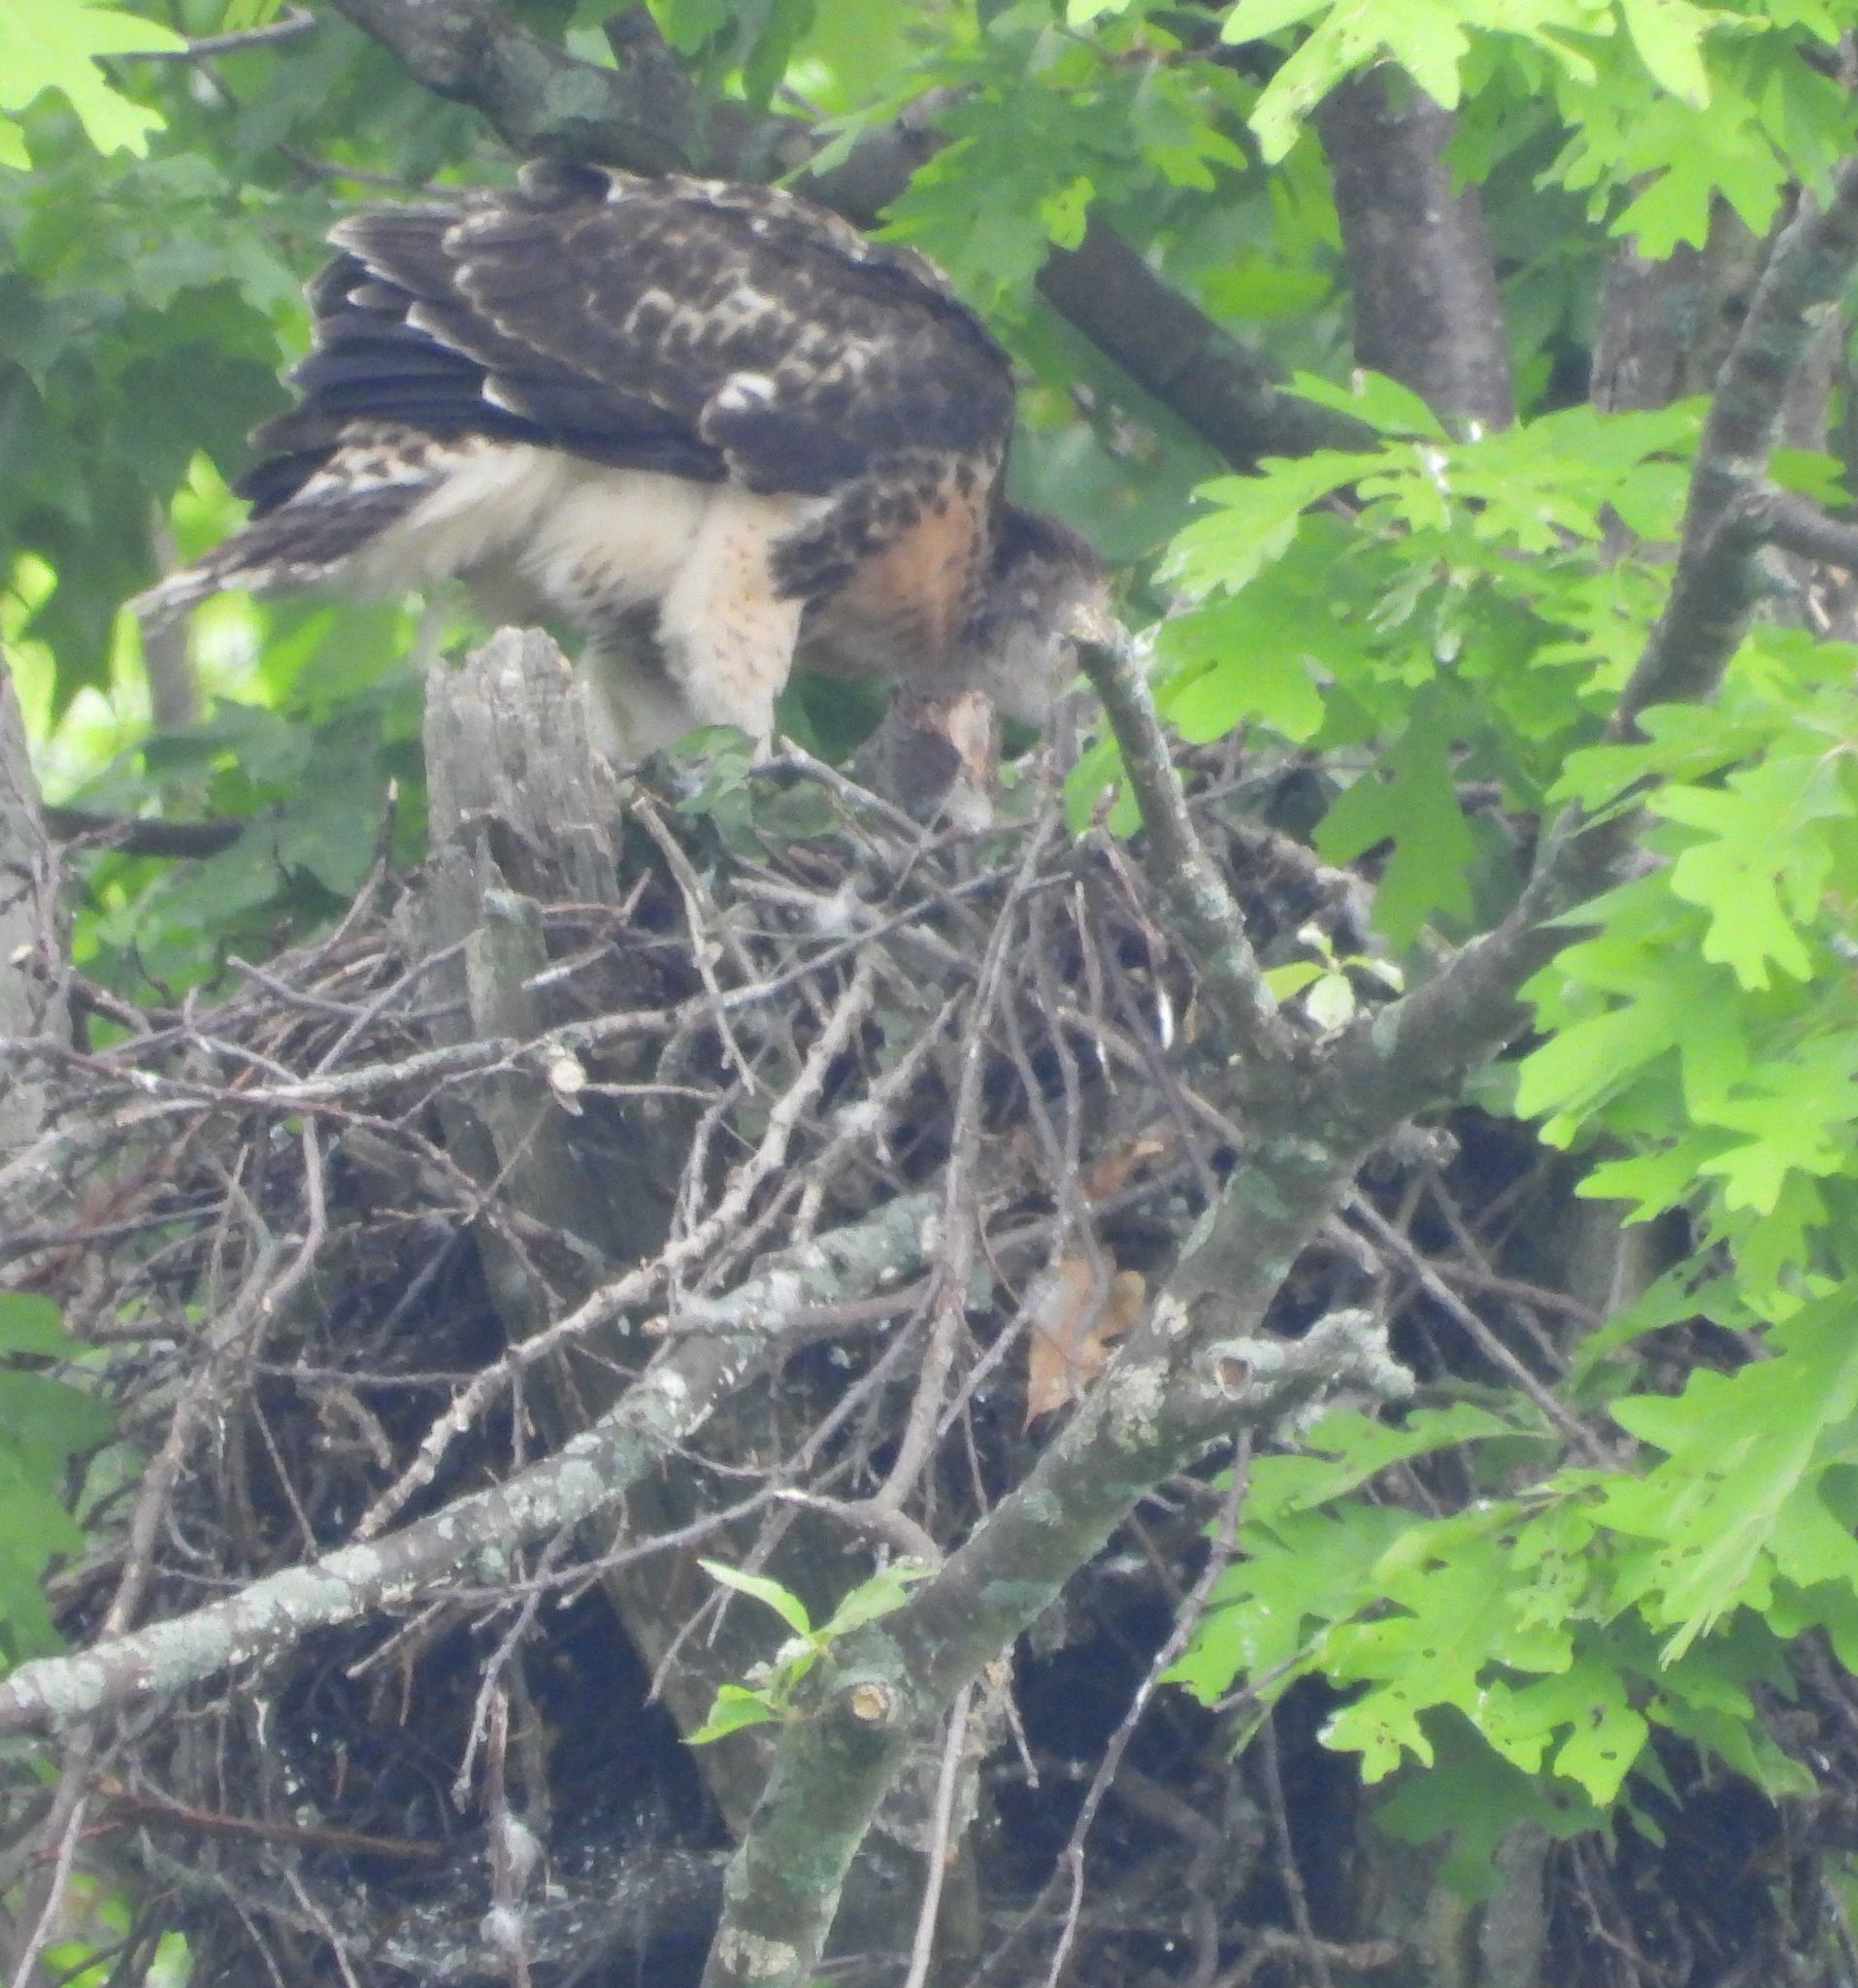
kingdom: Animalia
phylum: Chordata
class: Aves
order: Accipitriformes
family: Accipitridae
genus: Buteo
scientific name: Buteo jamaicensis
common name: Red-tailed hawk
